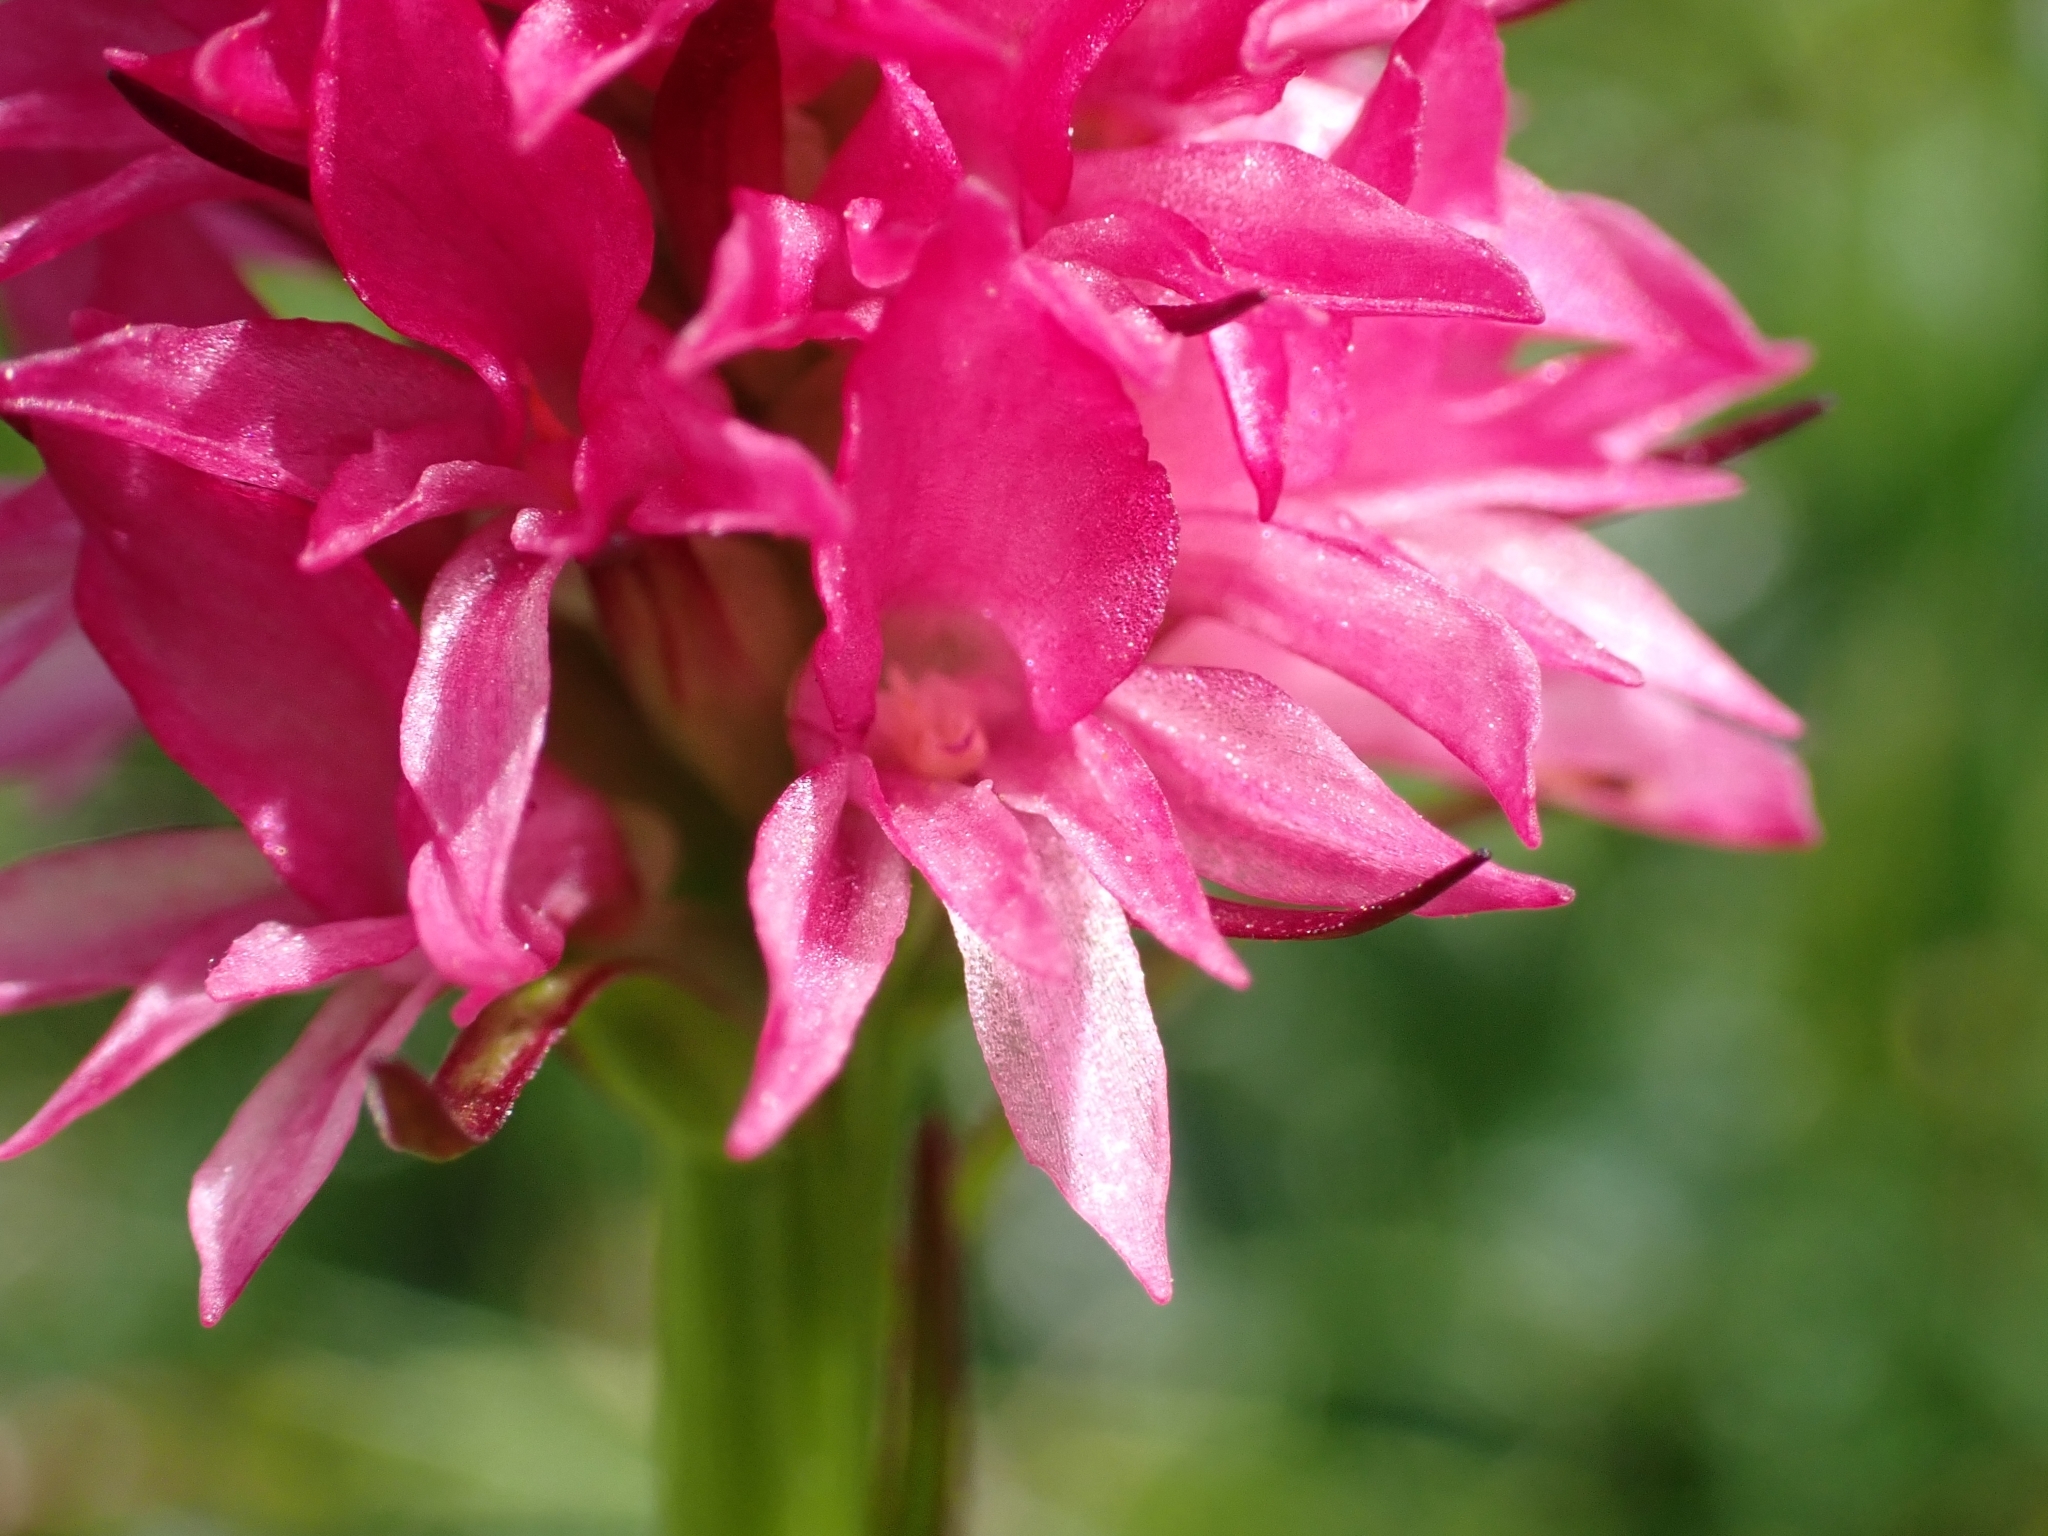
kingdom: Plantae
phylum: Tracheophyta
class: Liliopsida
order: Asparagales
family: Orchidaceae
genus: Gymnadenia
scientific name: Gymnadenia miniata
